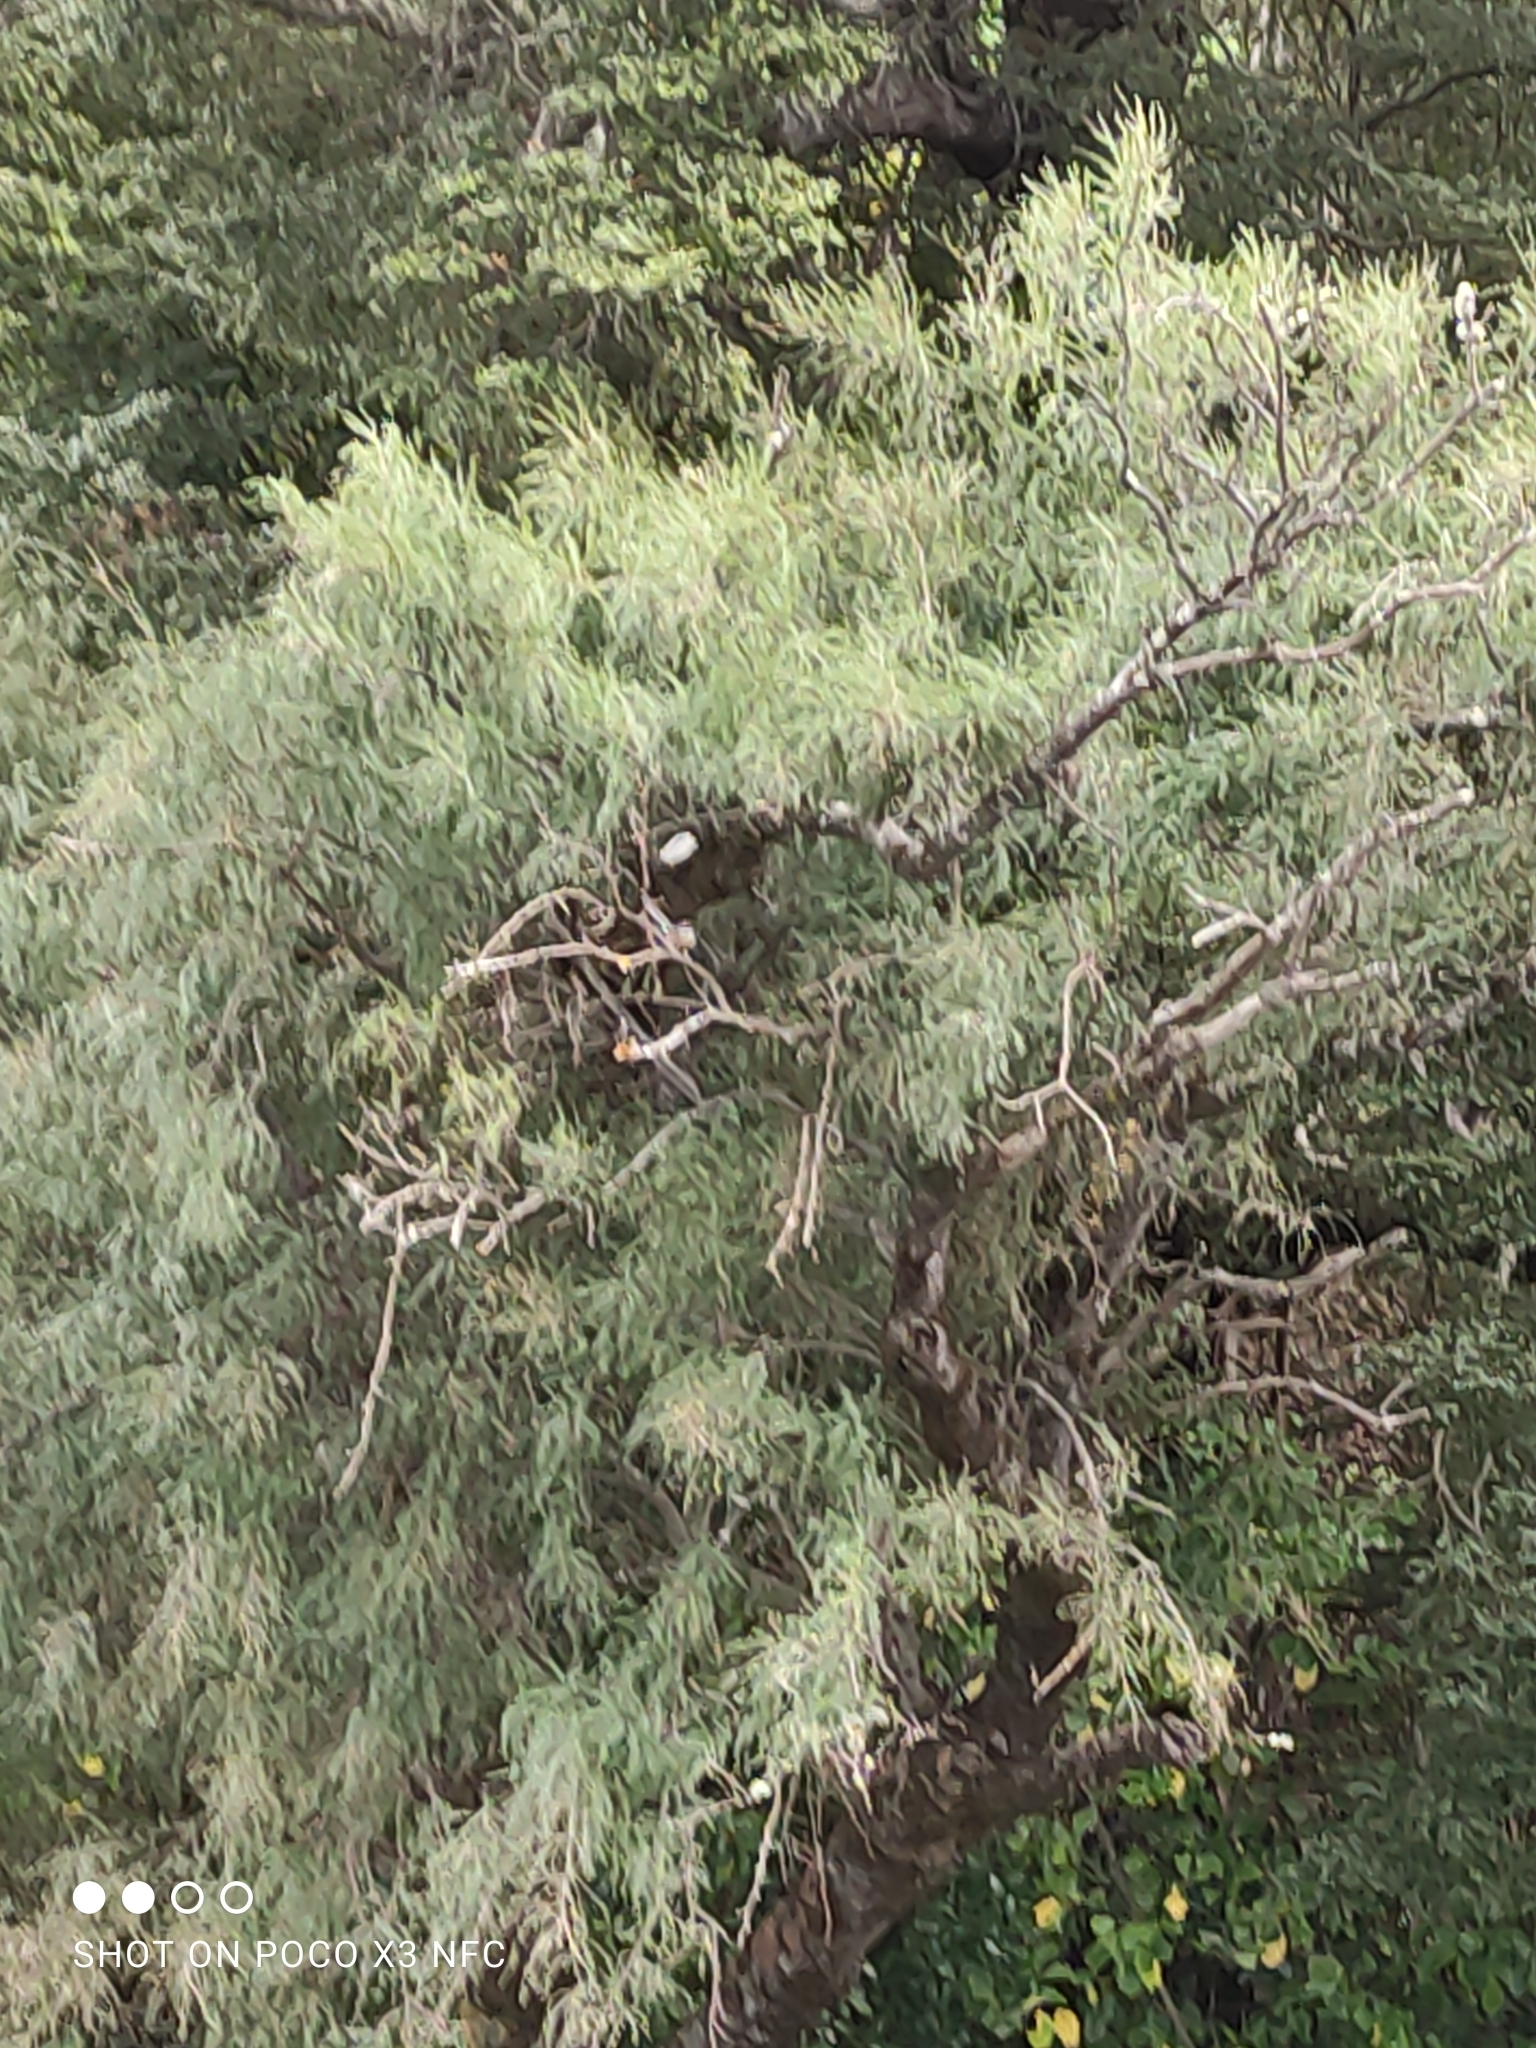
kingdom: Animalia
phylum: Chordata
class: Aves
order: Passeriformes
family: Rhipiduridae
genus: Rhipidura
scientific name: Rhipidura fuliginosa
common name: New zealand fantail
